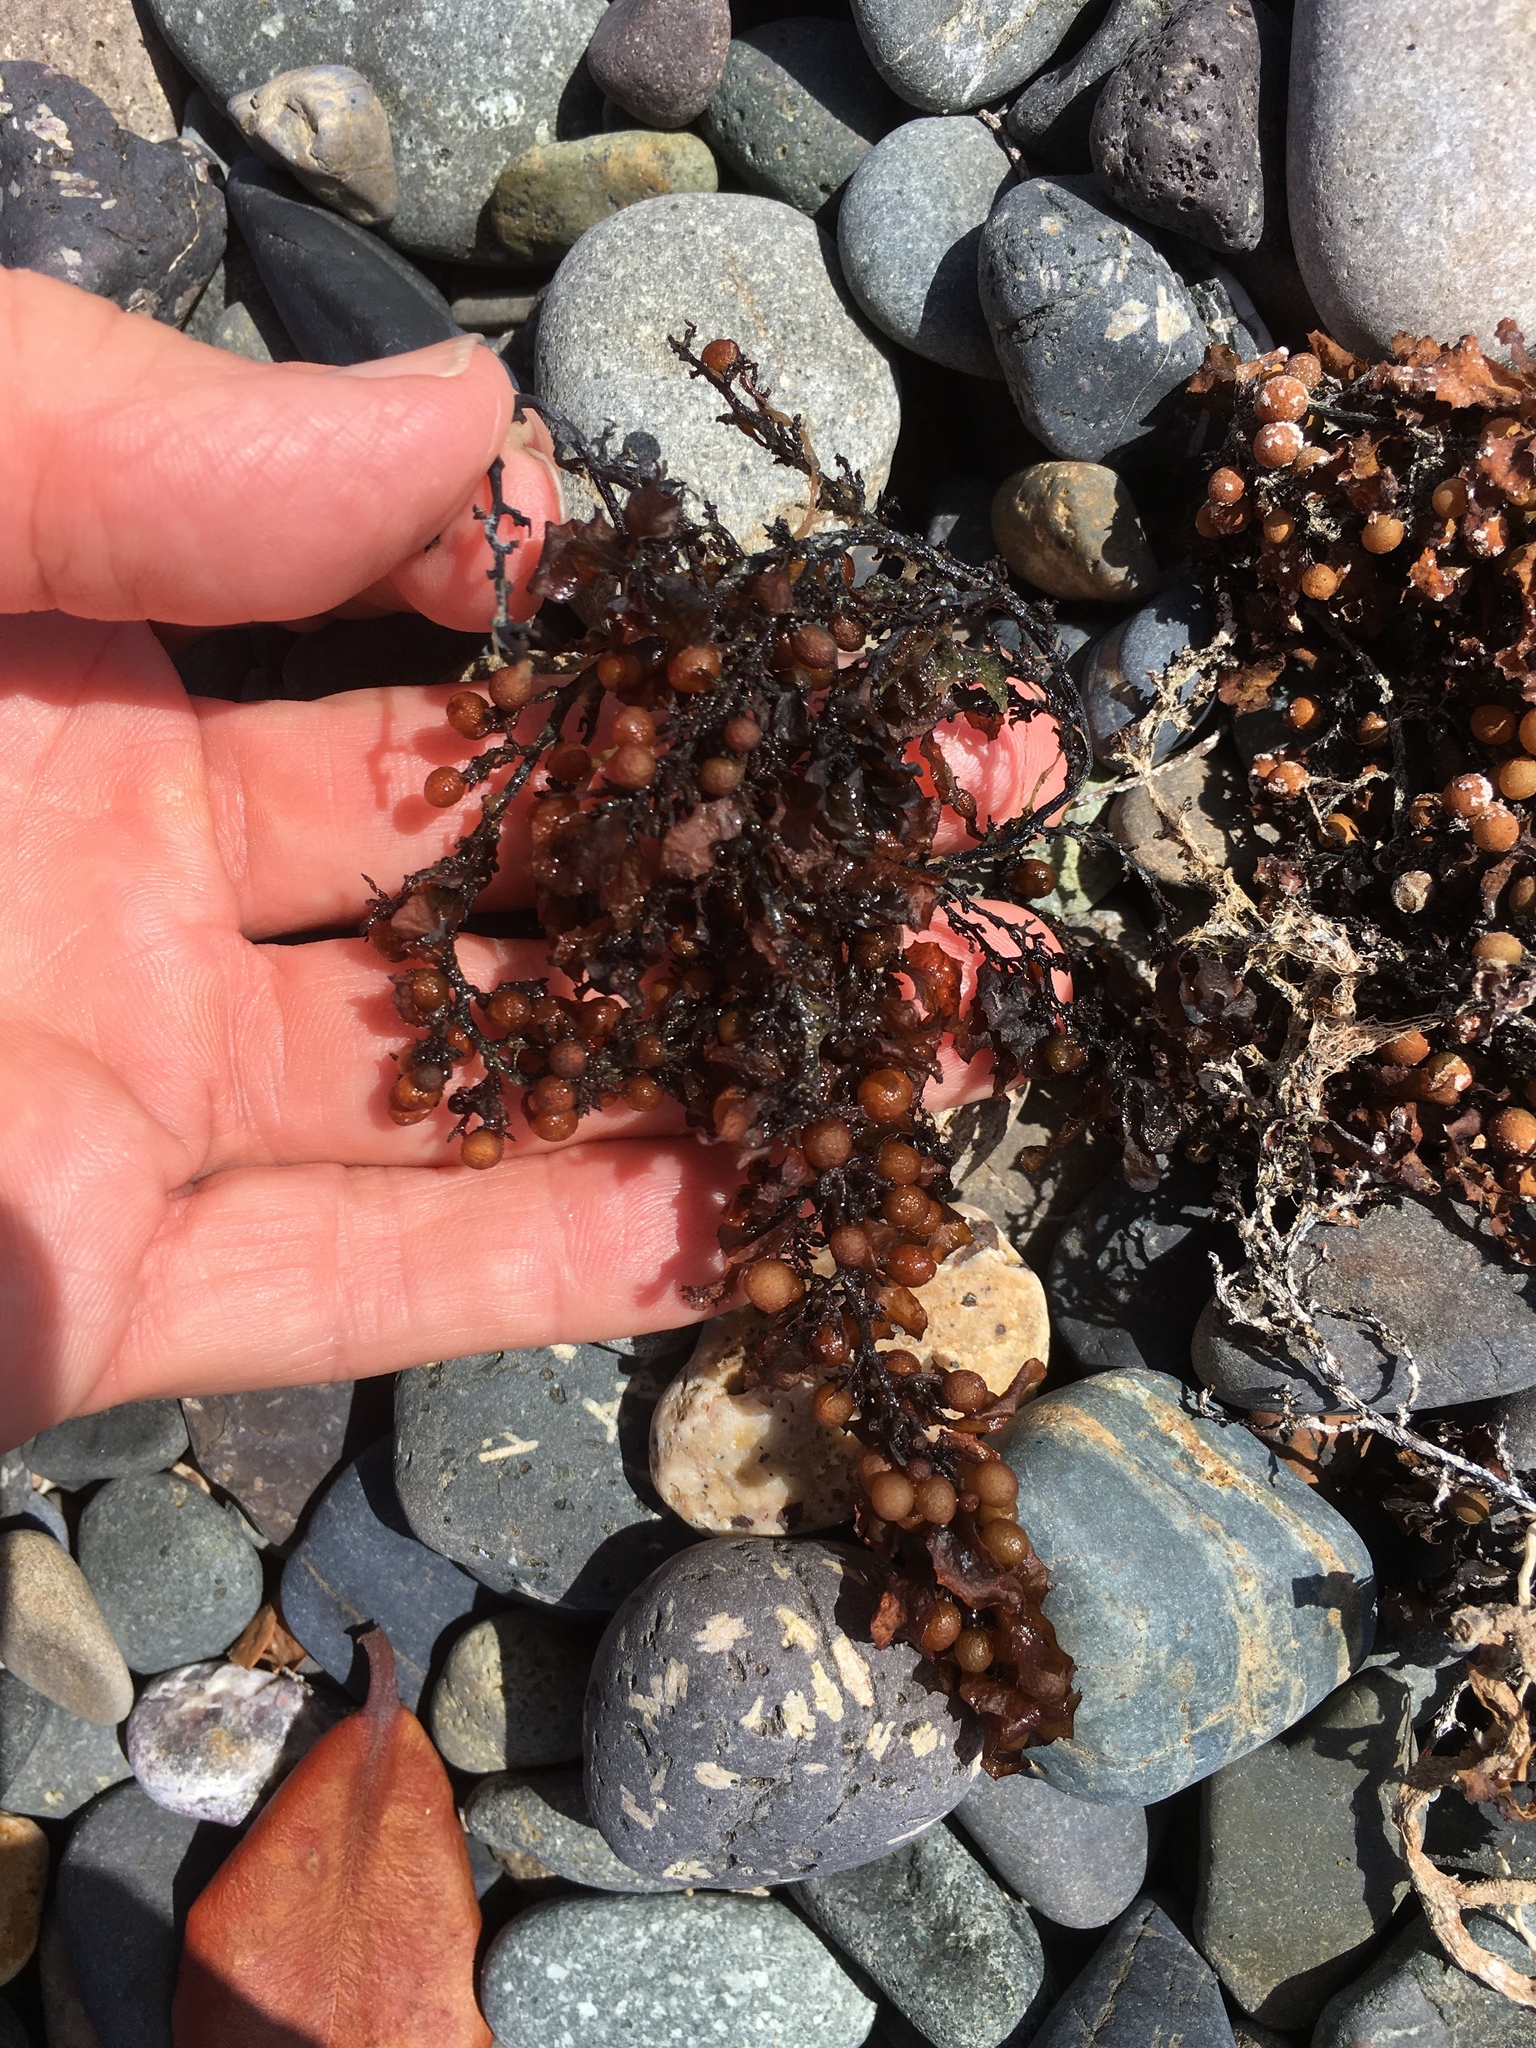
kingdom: Chromista
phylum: Ochrophyta
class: Phaeophyceae
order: Fucales
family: Sargassaceae
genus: Sargassum
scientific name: Sargassum fluitans
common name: Sargassum seaweed
